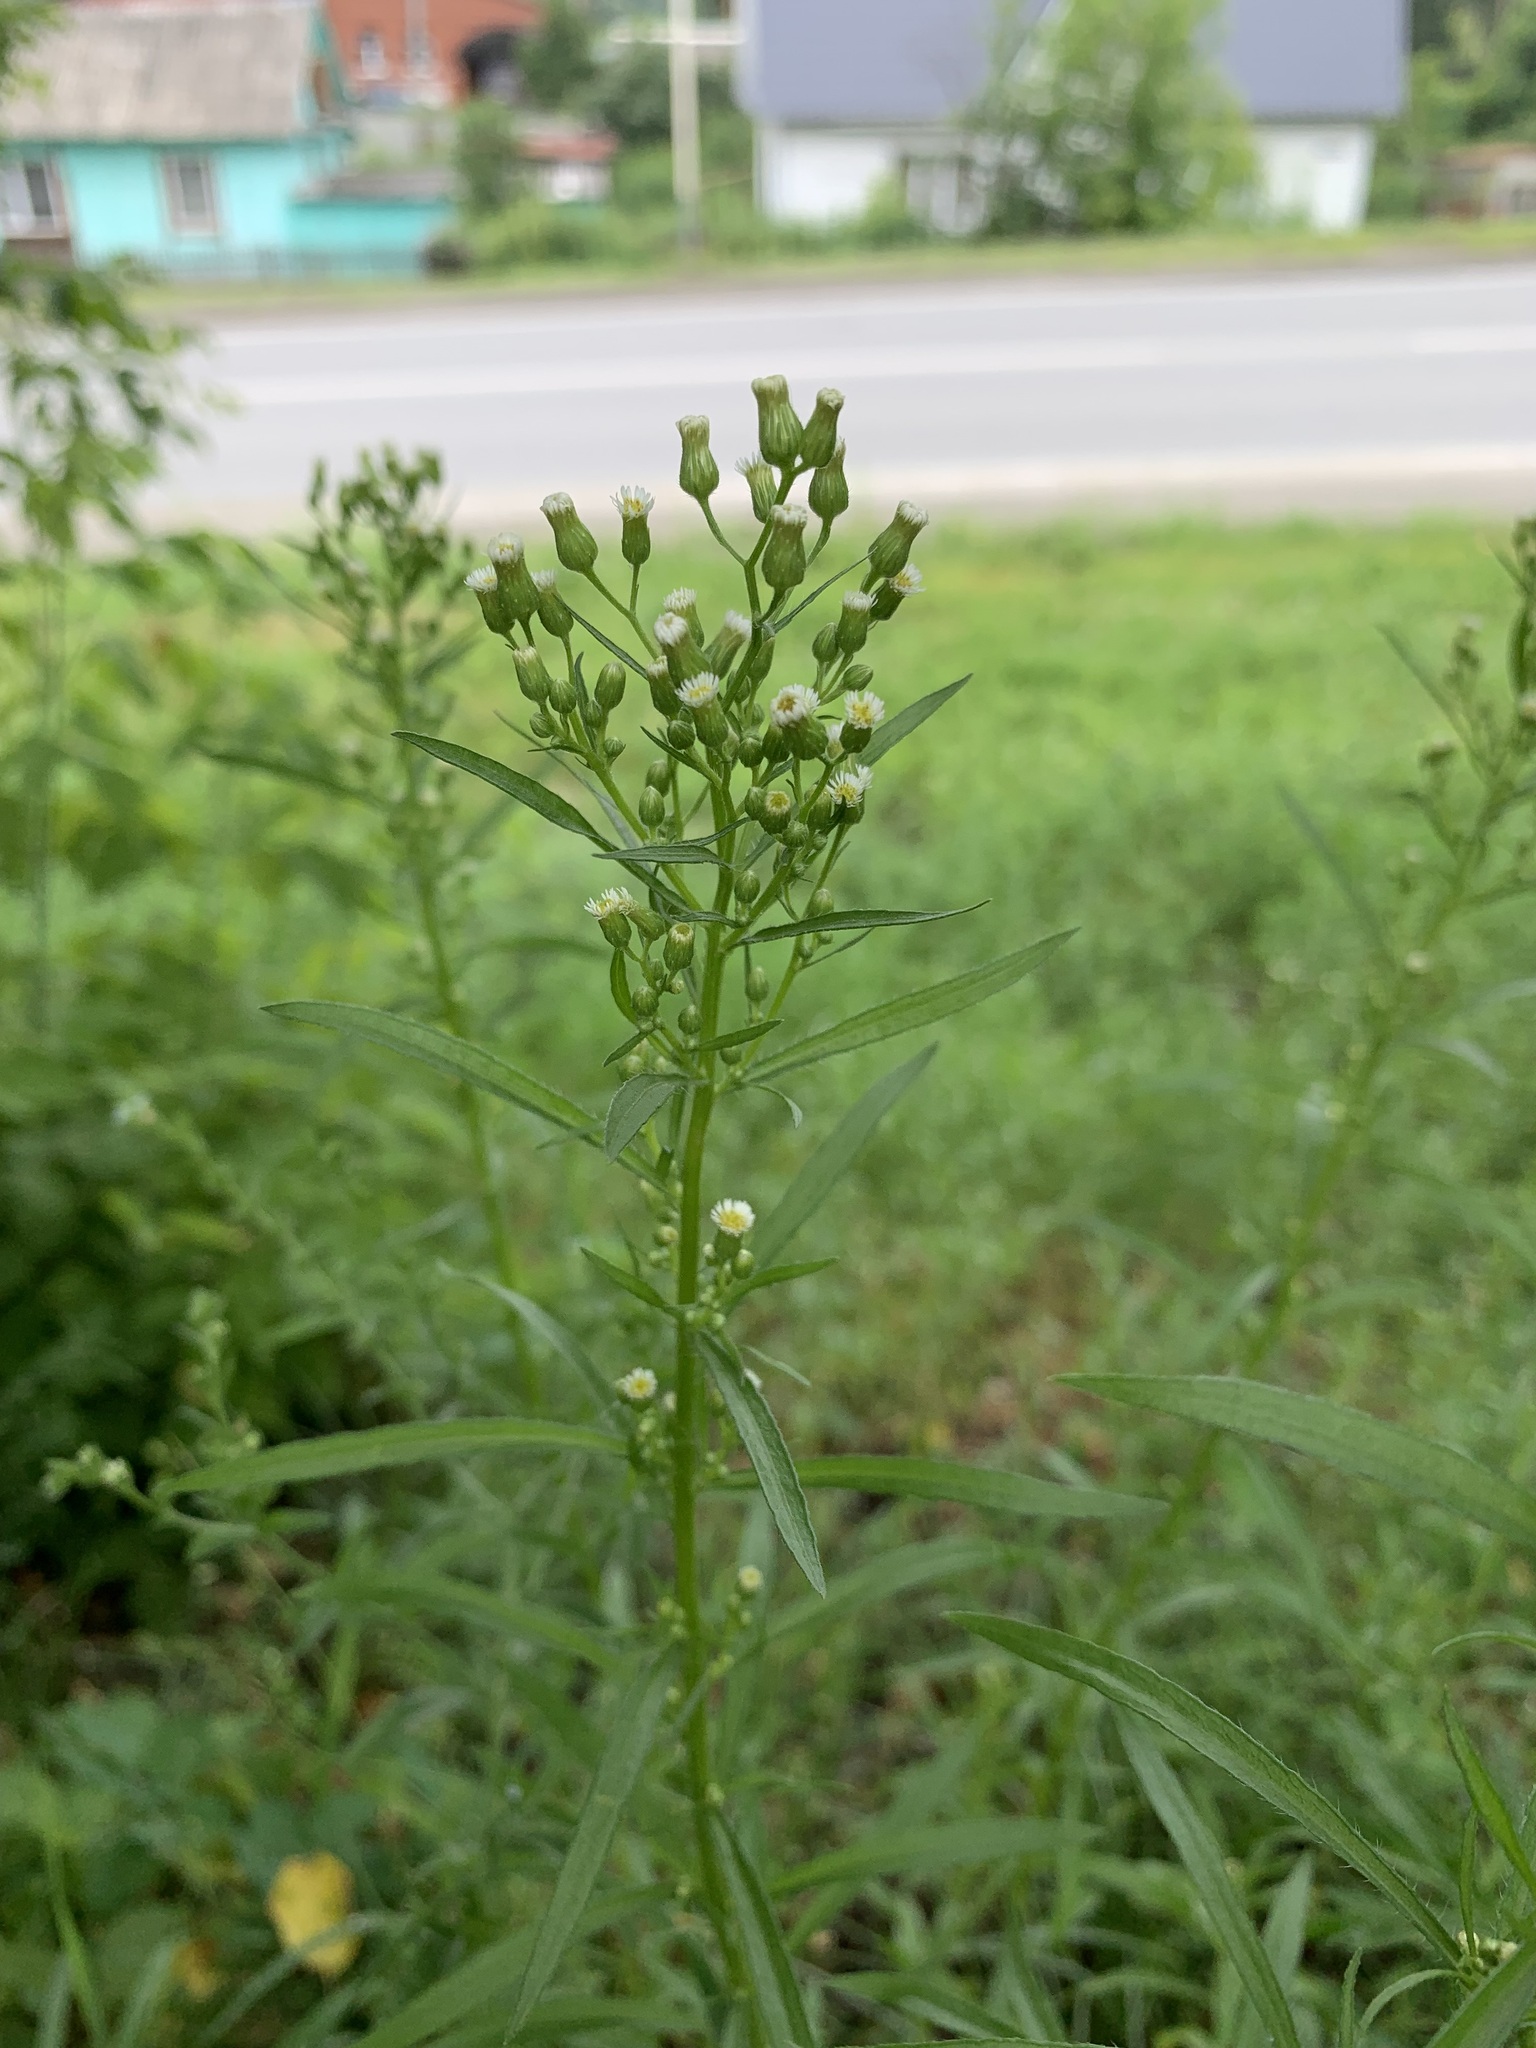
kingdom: Plantae
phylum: Tracheophyta
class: Magnoliopsida
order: Asterales
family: Asteraceae
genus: Erigeron
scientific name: Erigeron canadensis
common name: Canadian fleabane
